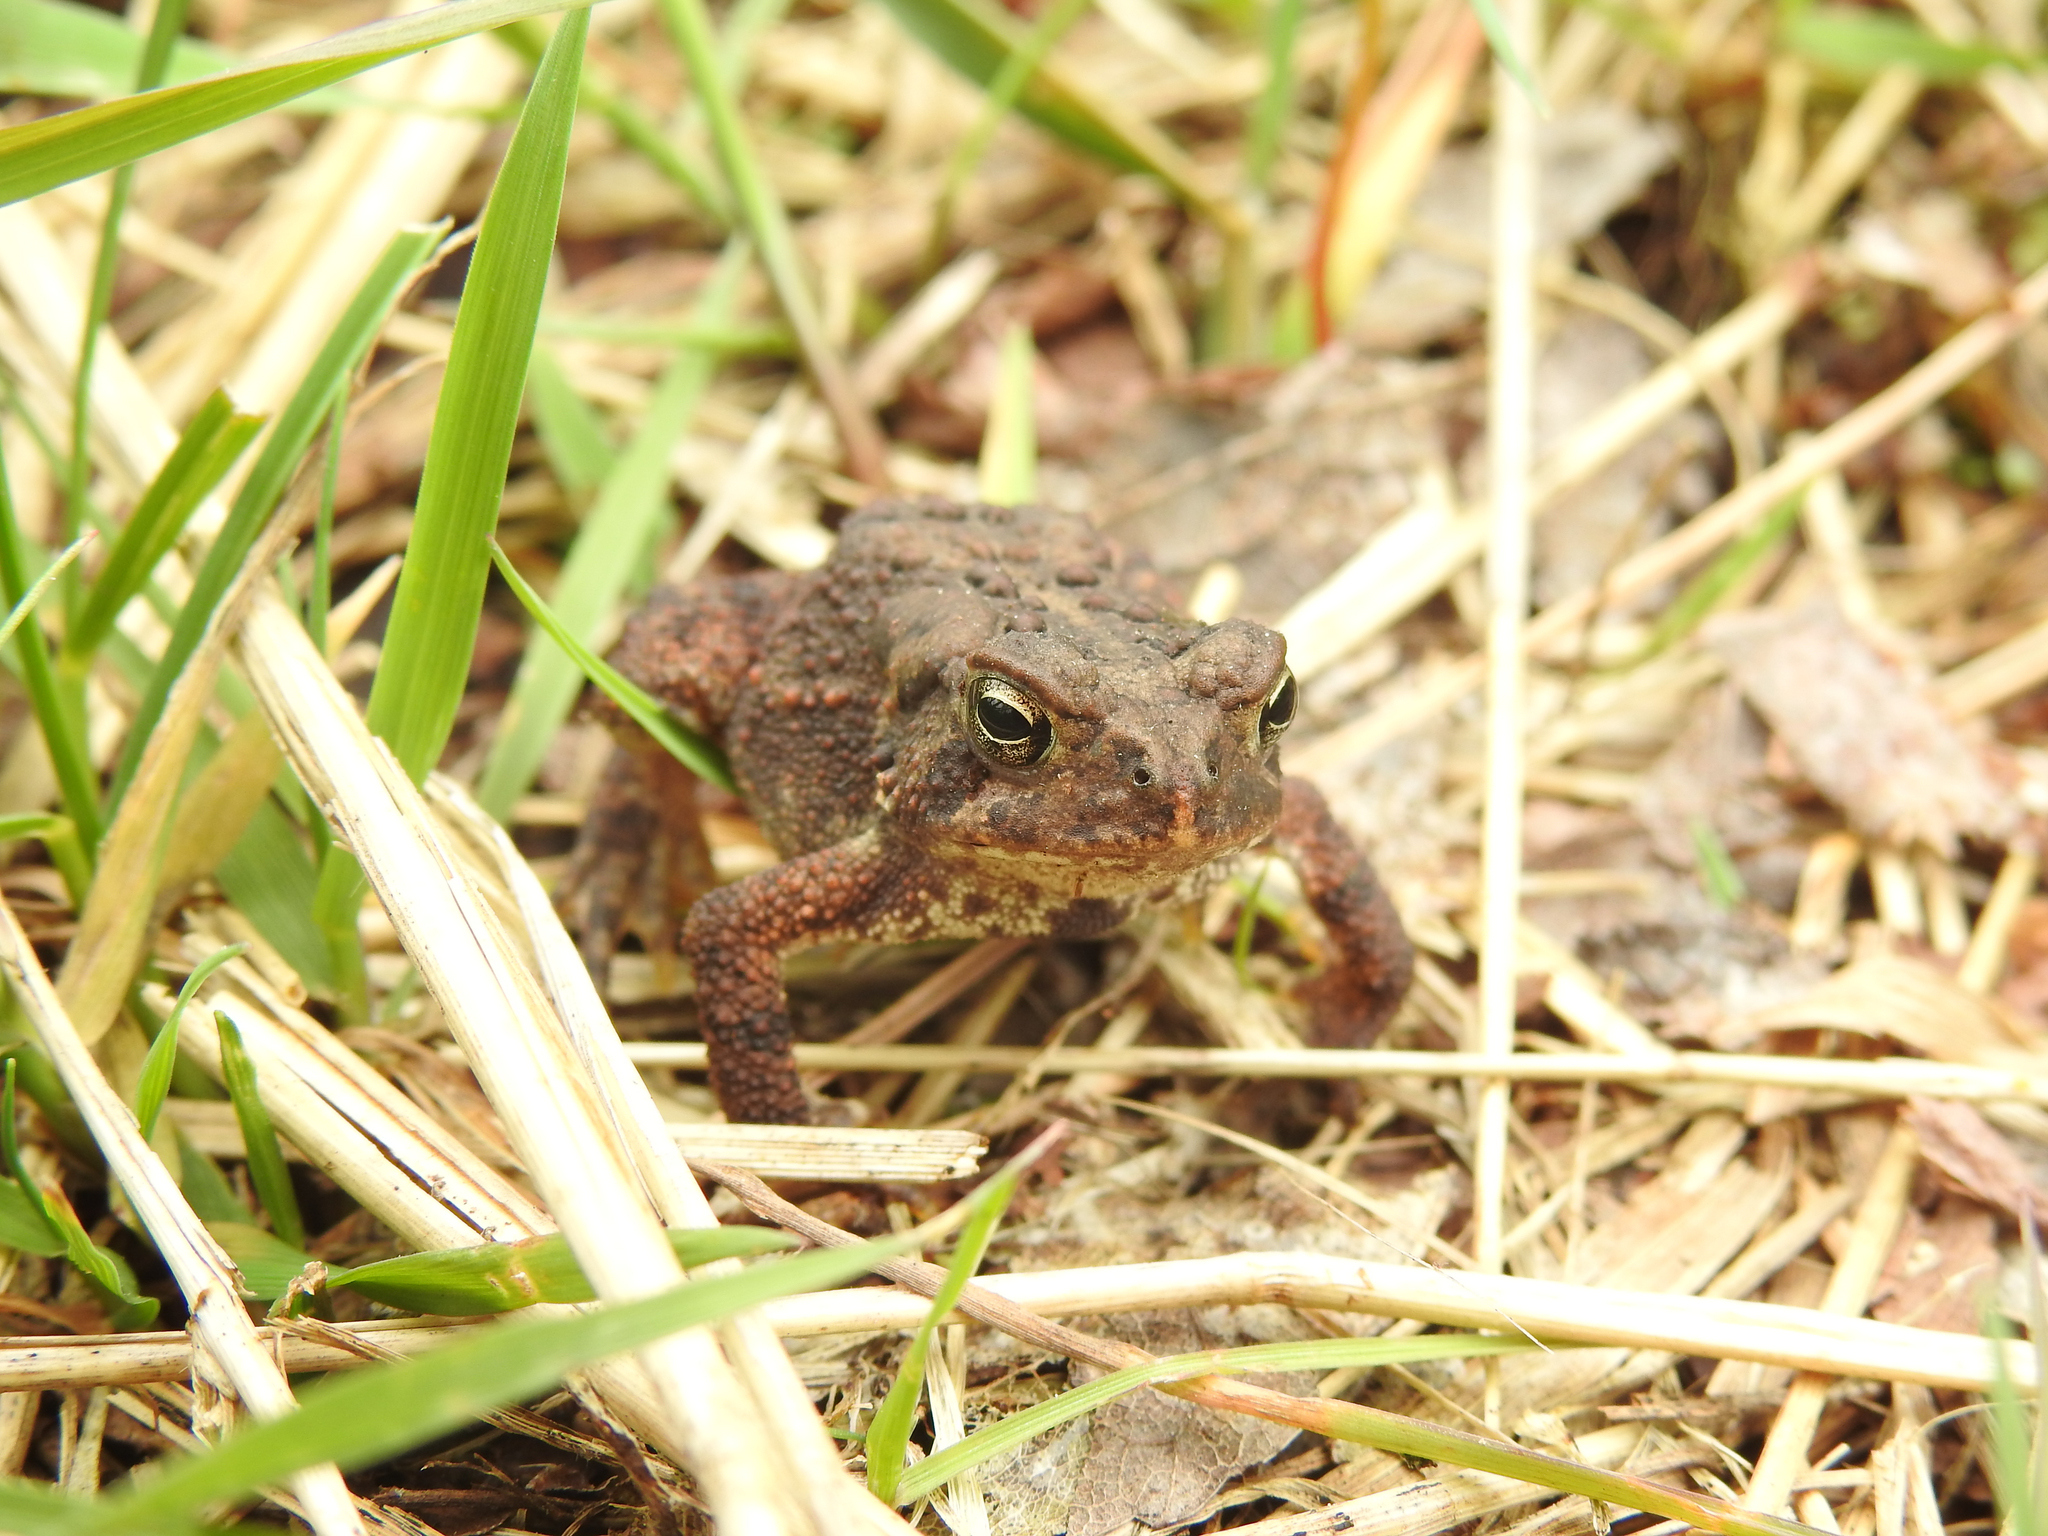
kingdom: Animalia
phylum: Chordata
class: Amphibia
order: Anura
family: Bufonidae
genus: Anaxyrus
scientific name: Anaxyrus americanus
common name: American toad
